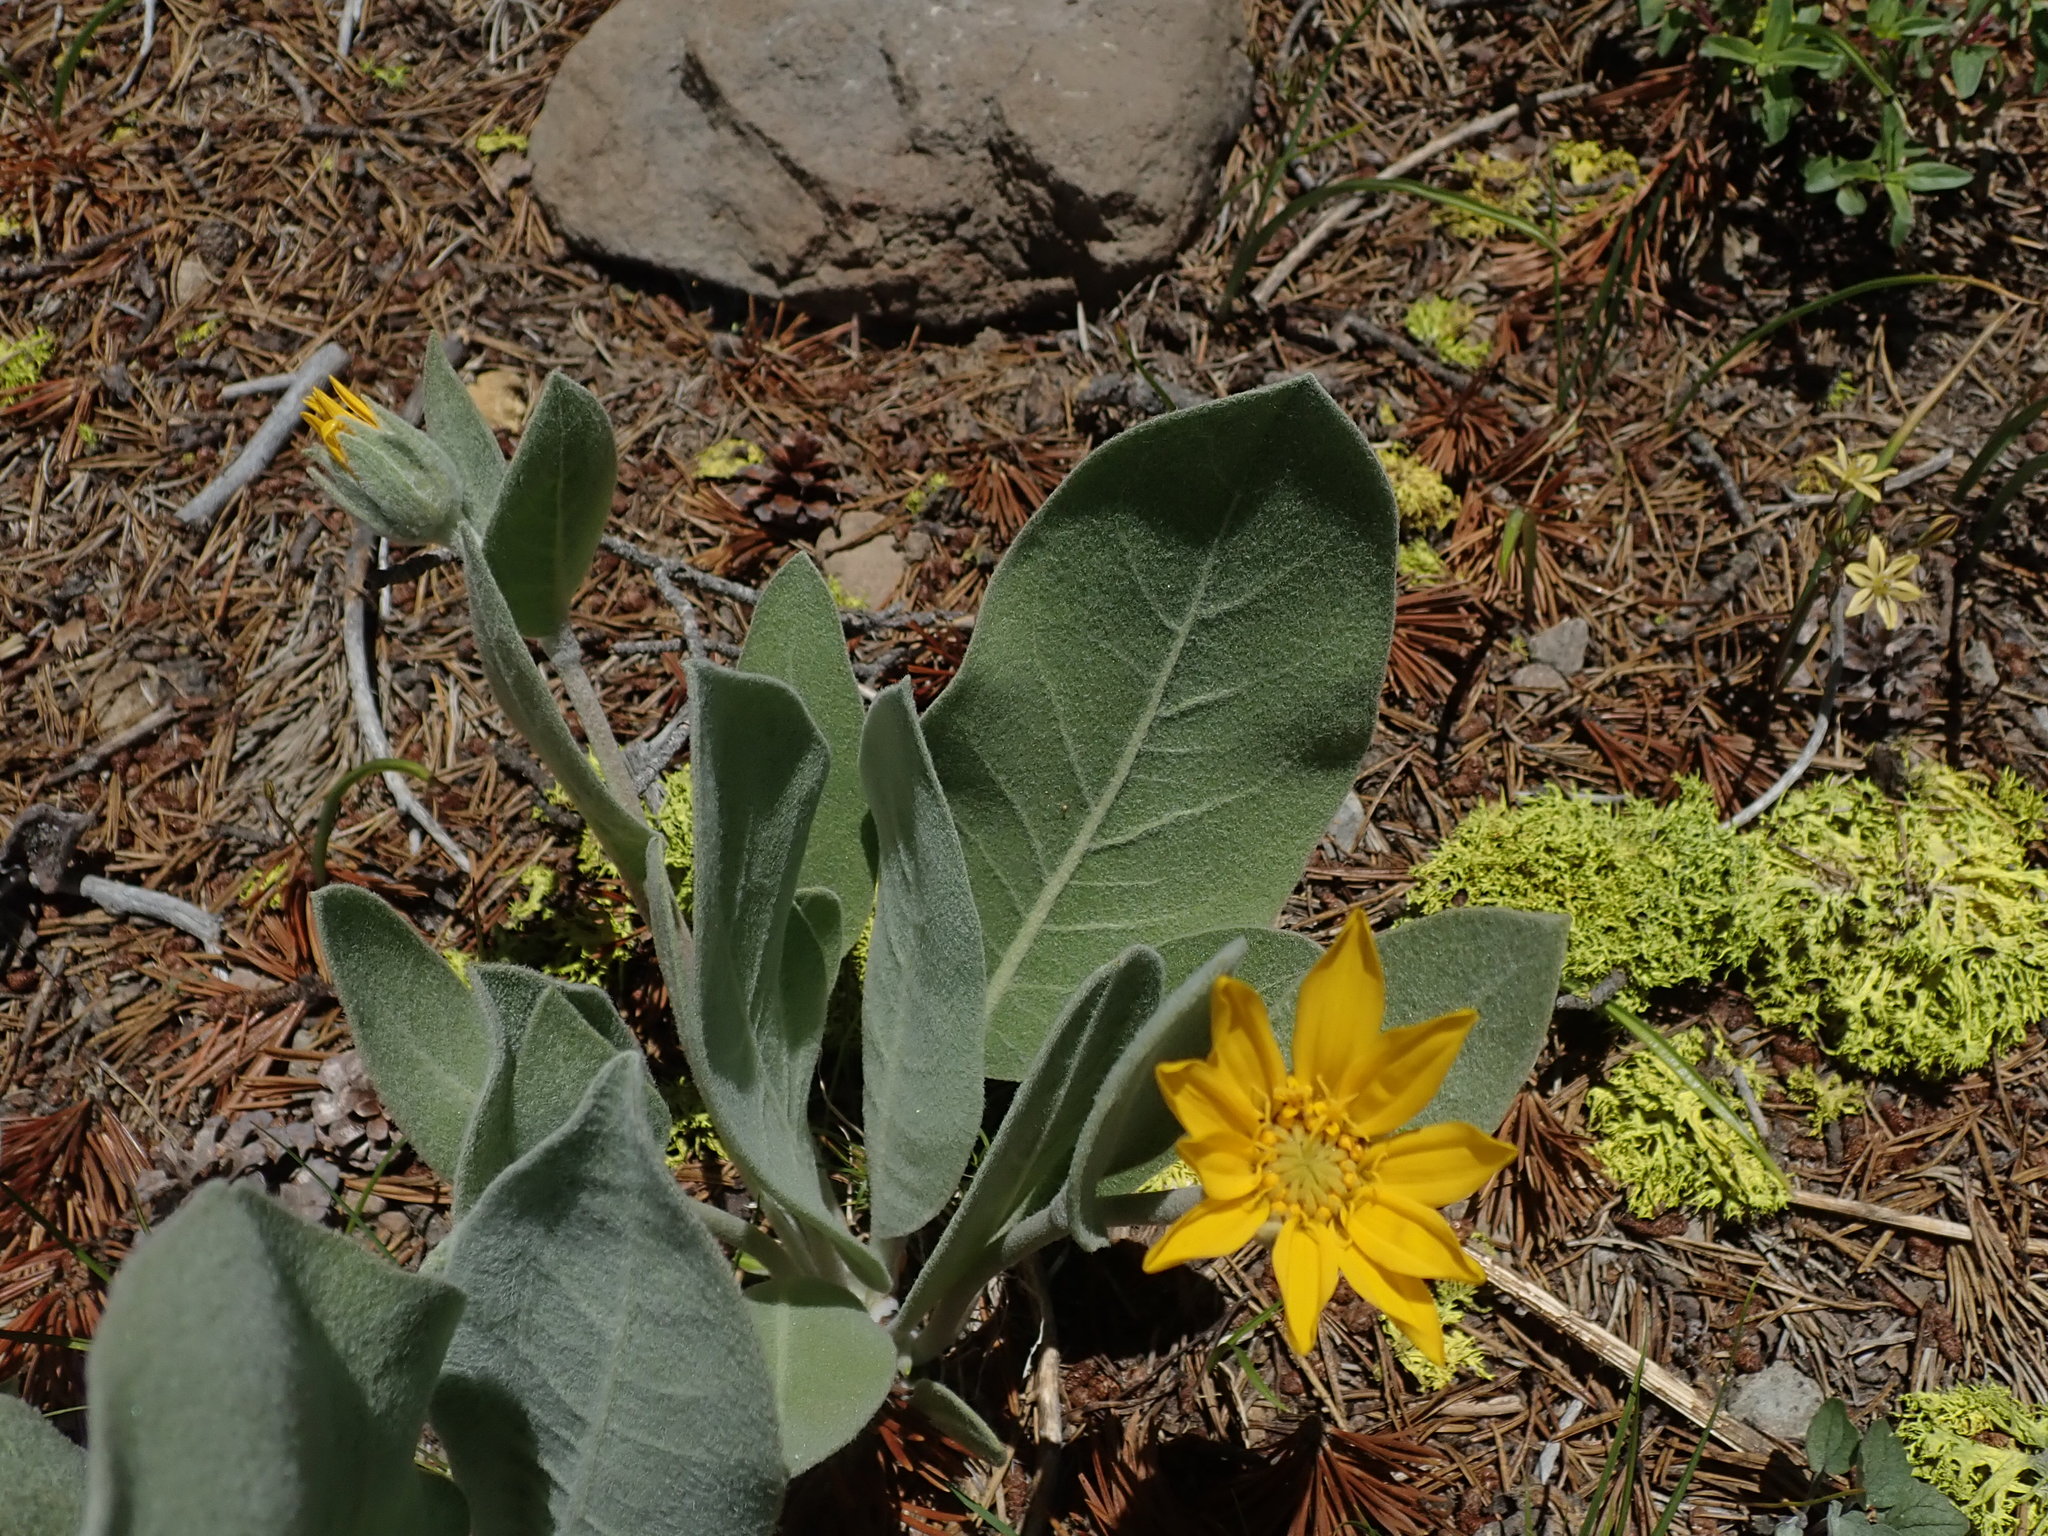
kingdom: Plantae
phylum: Tracheophyta
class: Magnoliopsida
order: Asterales
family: Asteraceae
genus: Wyethia
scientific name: Wyethia mollis
